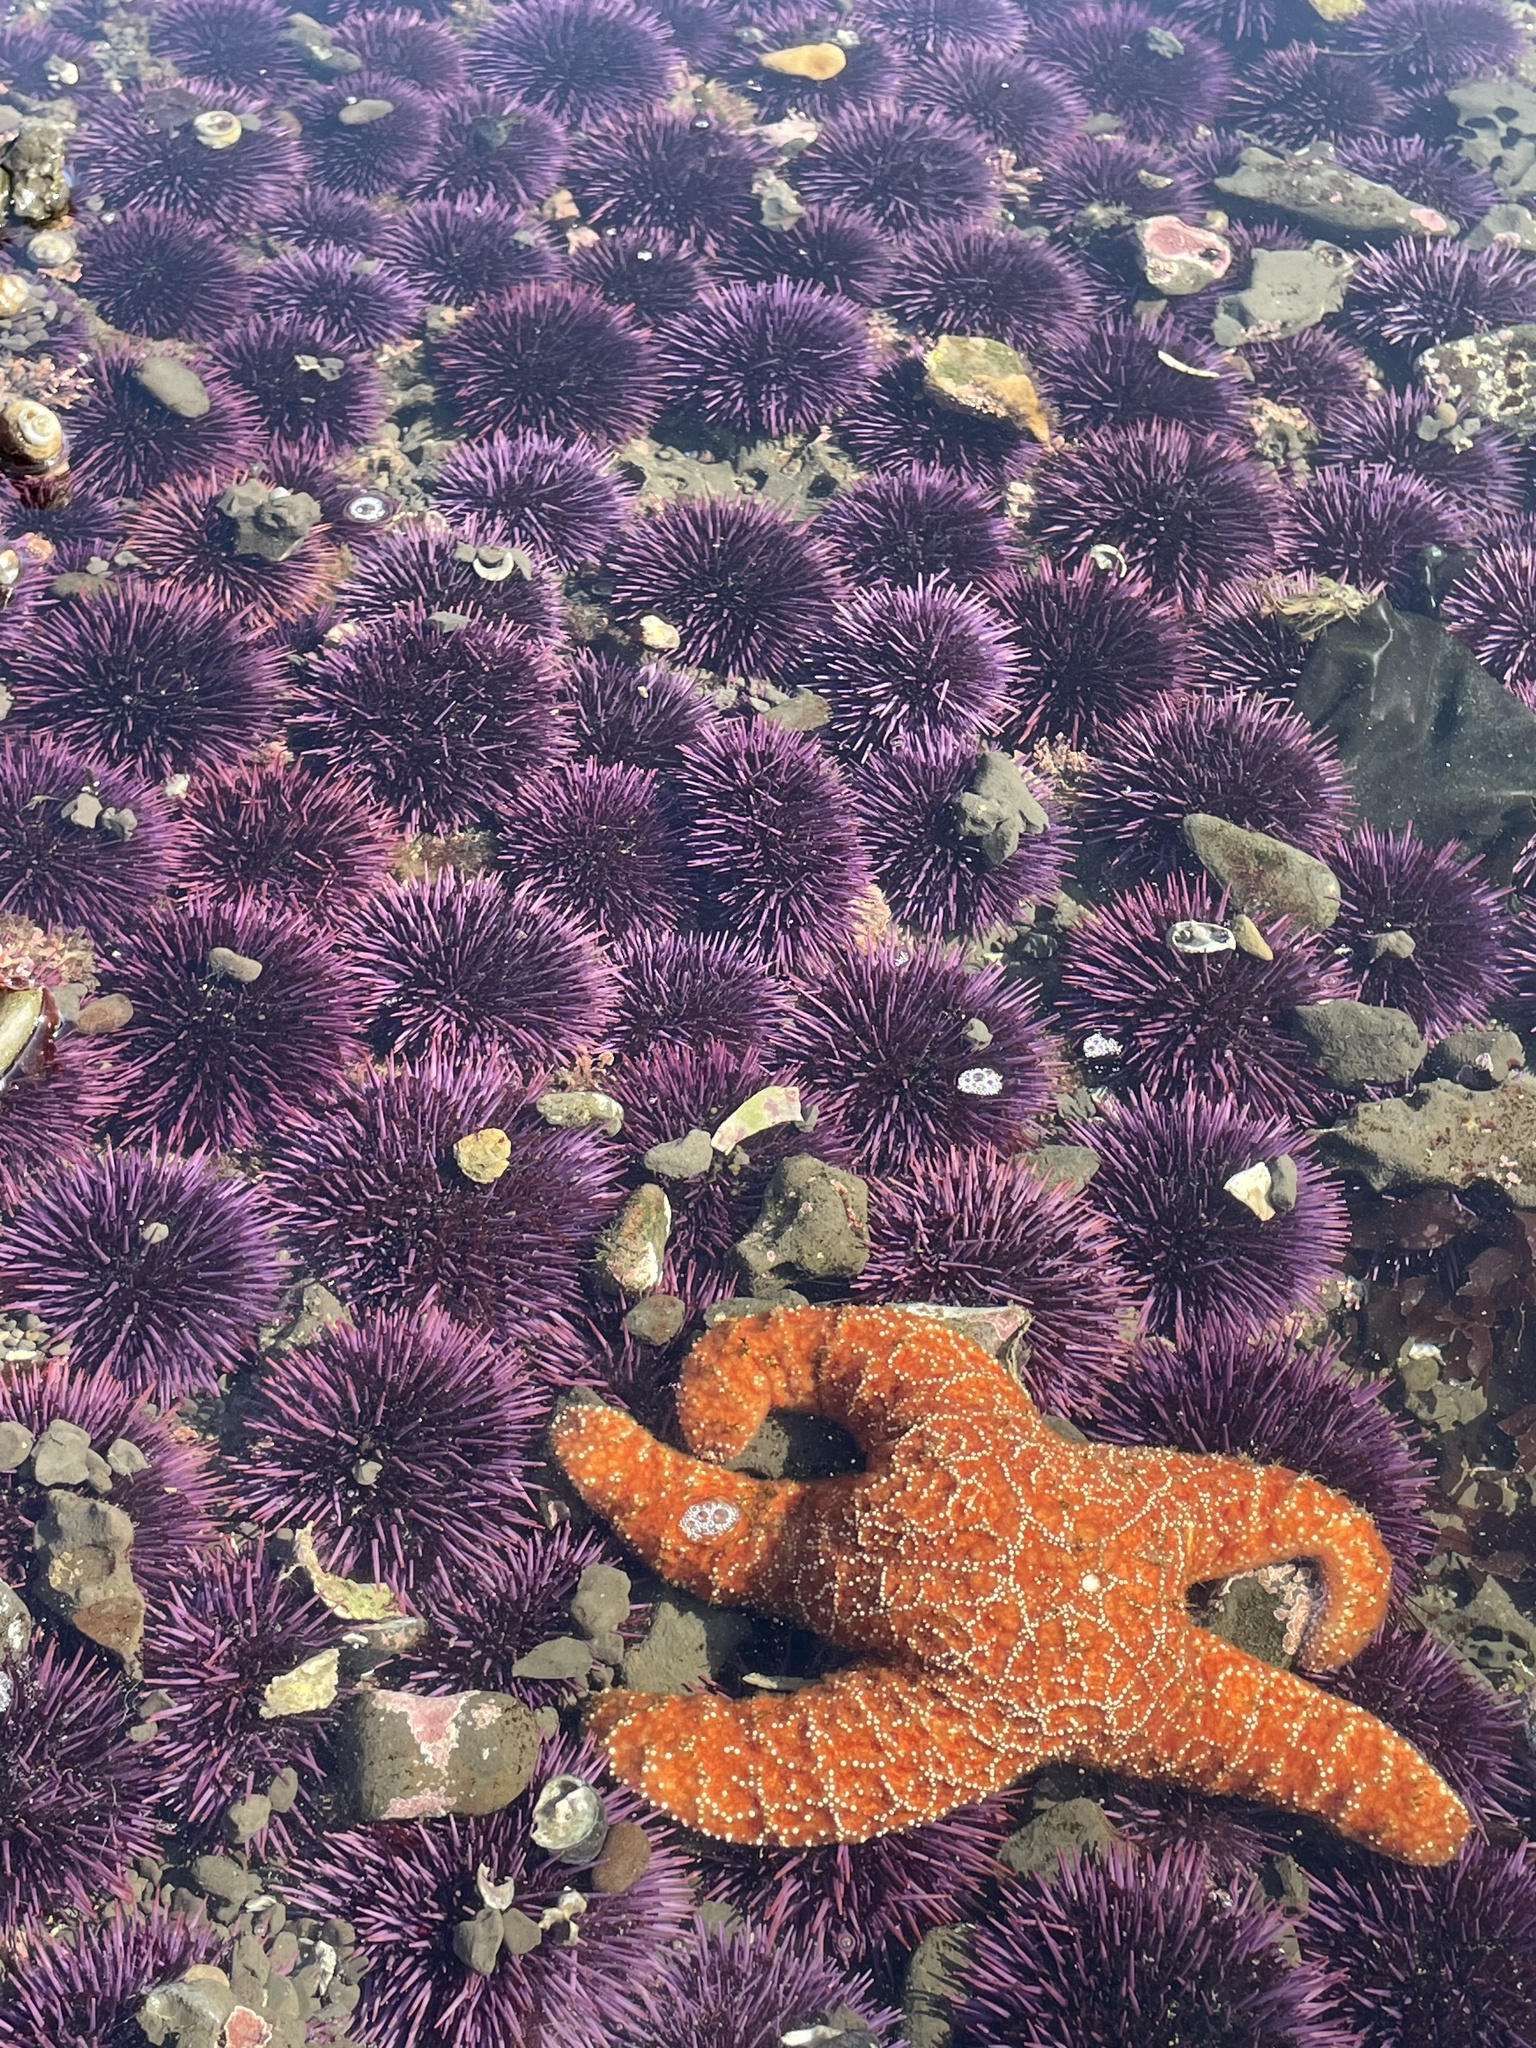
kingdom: Animalia
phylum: Echinodermata
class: Asteroidea
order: Forcipulatida
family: Asteriidae
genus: Pisaster
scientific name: Pisaster ochraceus
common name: Ochre stars
